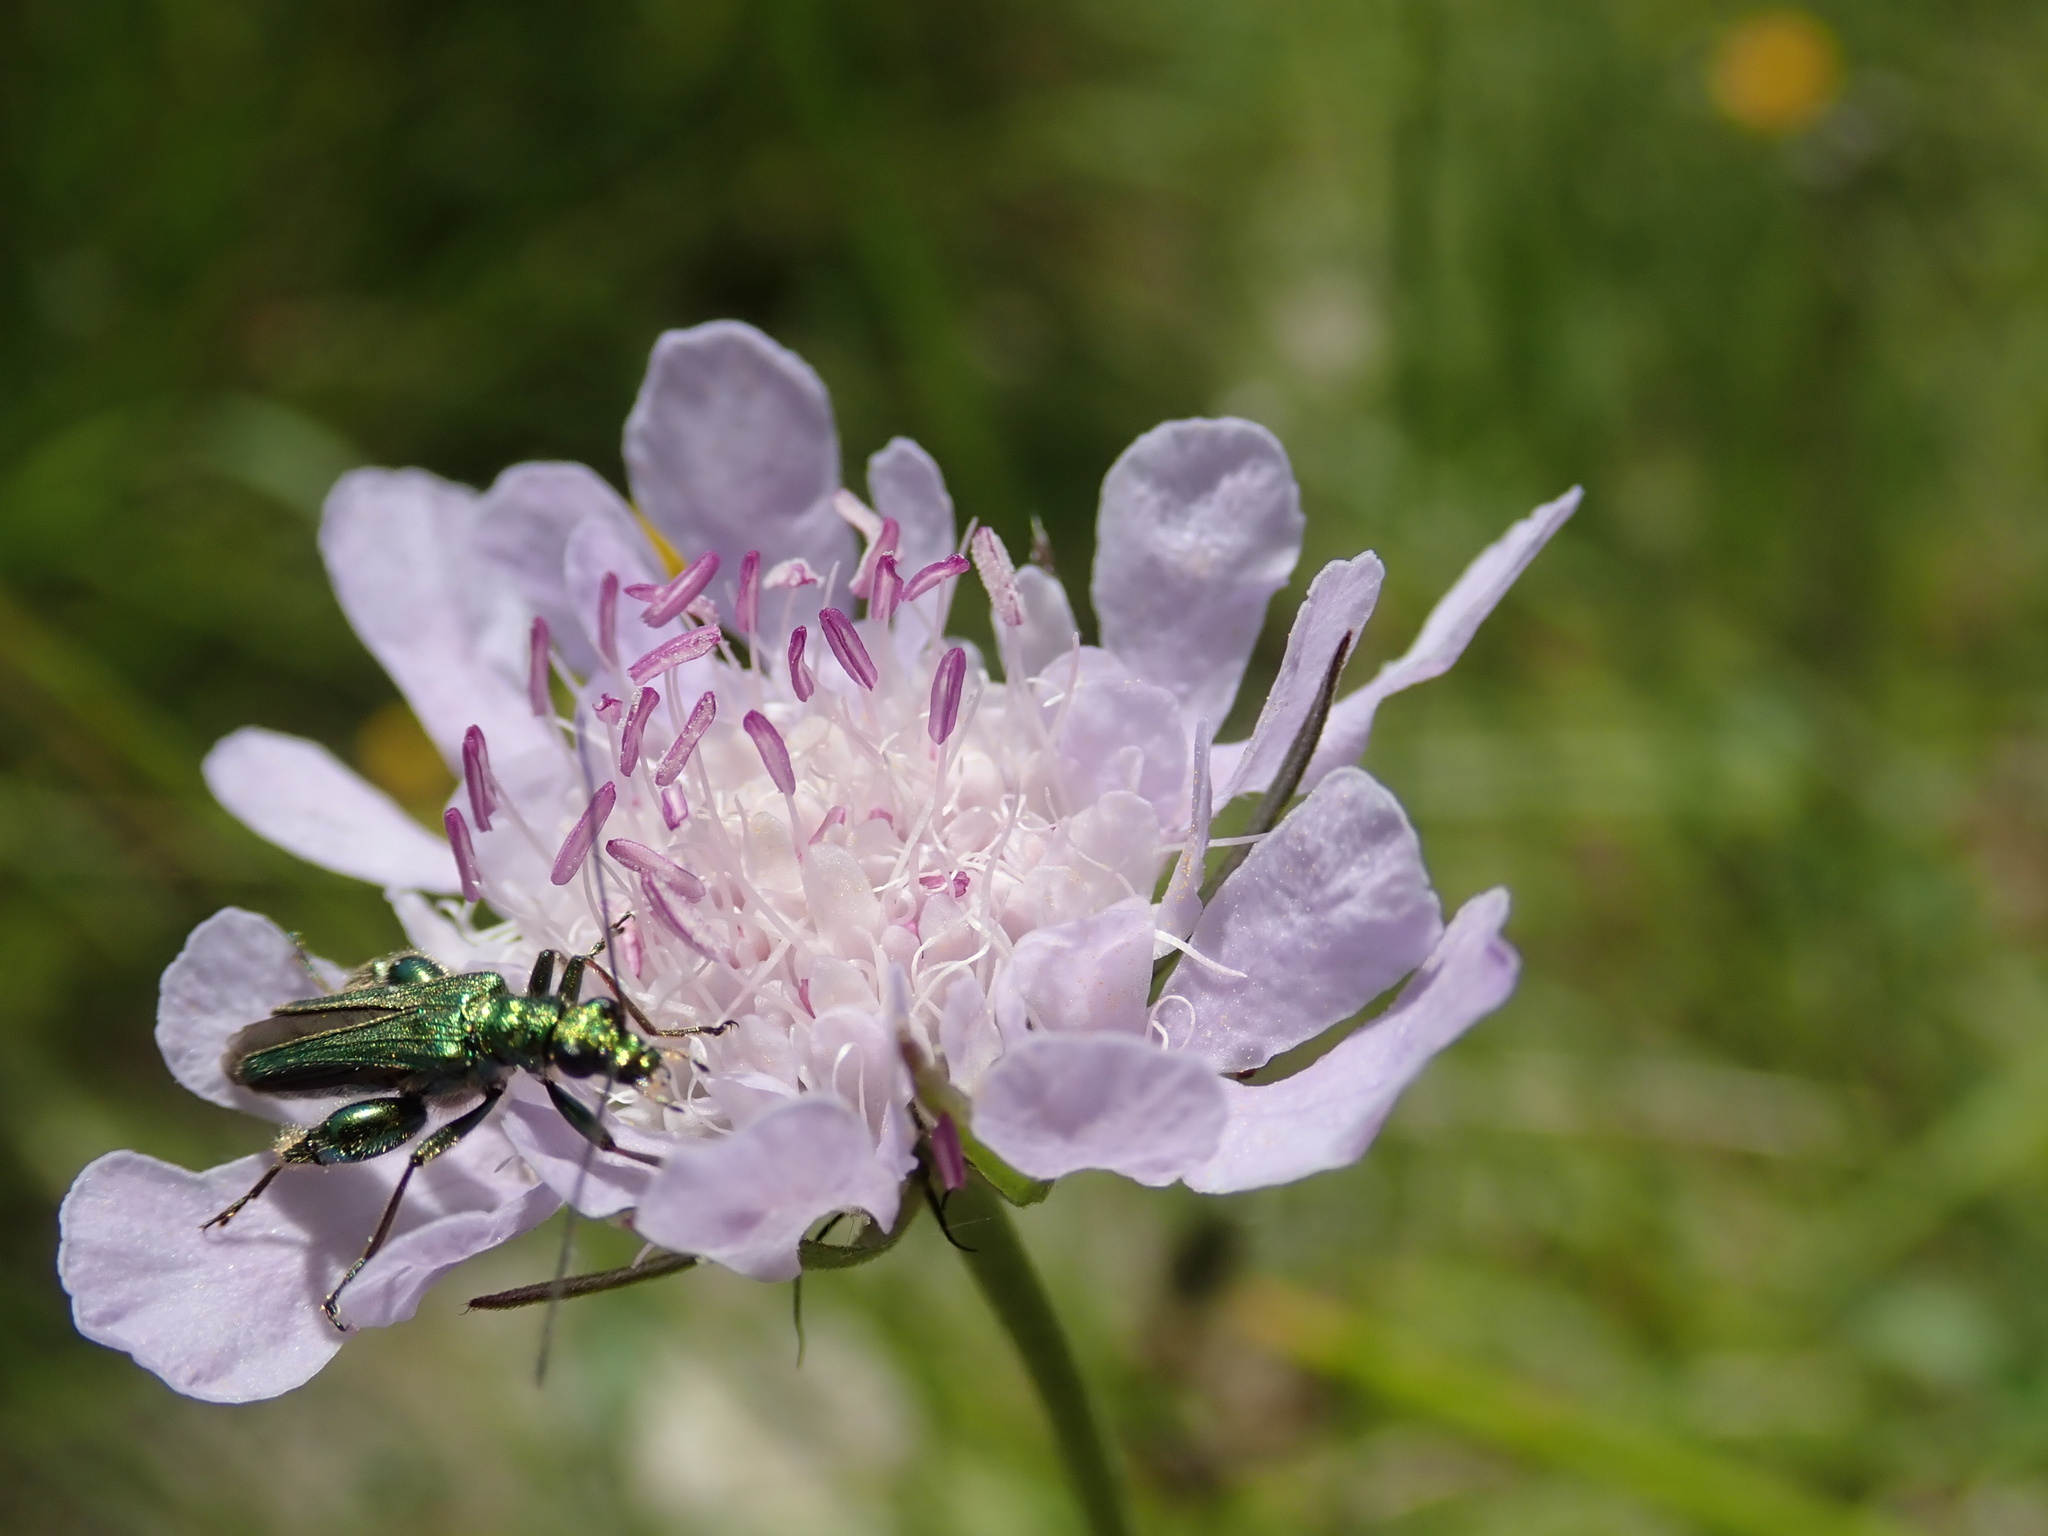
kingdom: Plantae
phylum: Tracheophyta
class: Magnoliopsida
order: Dipsacales
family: Caprifoliaceae
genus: Scabiosa
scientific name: Scabiosa columbaria
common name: Small scabious
